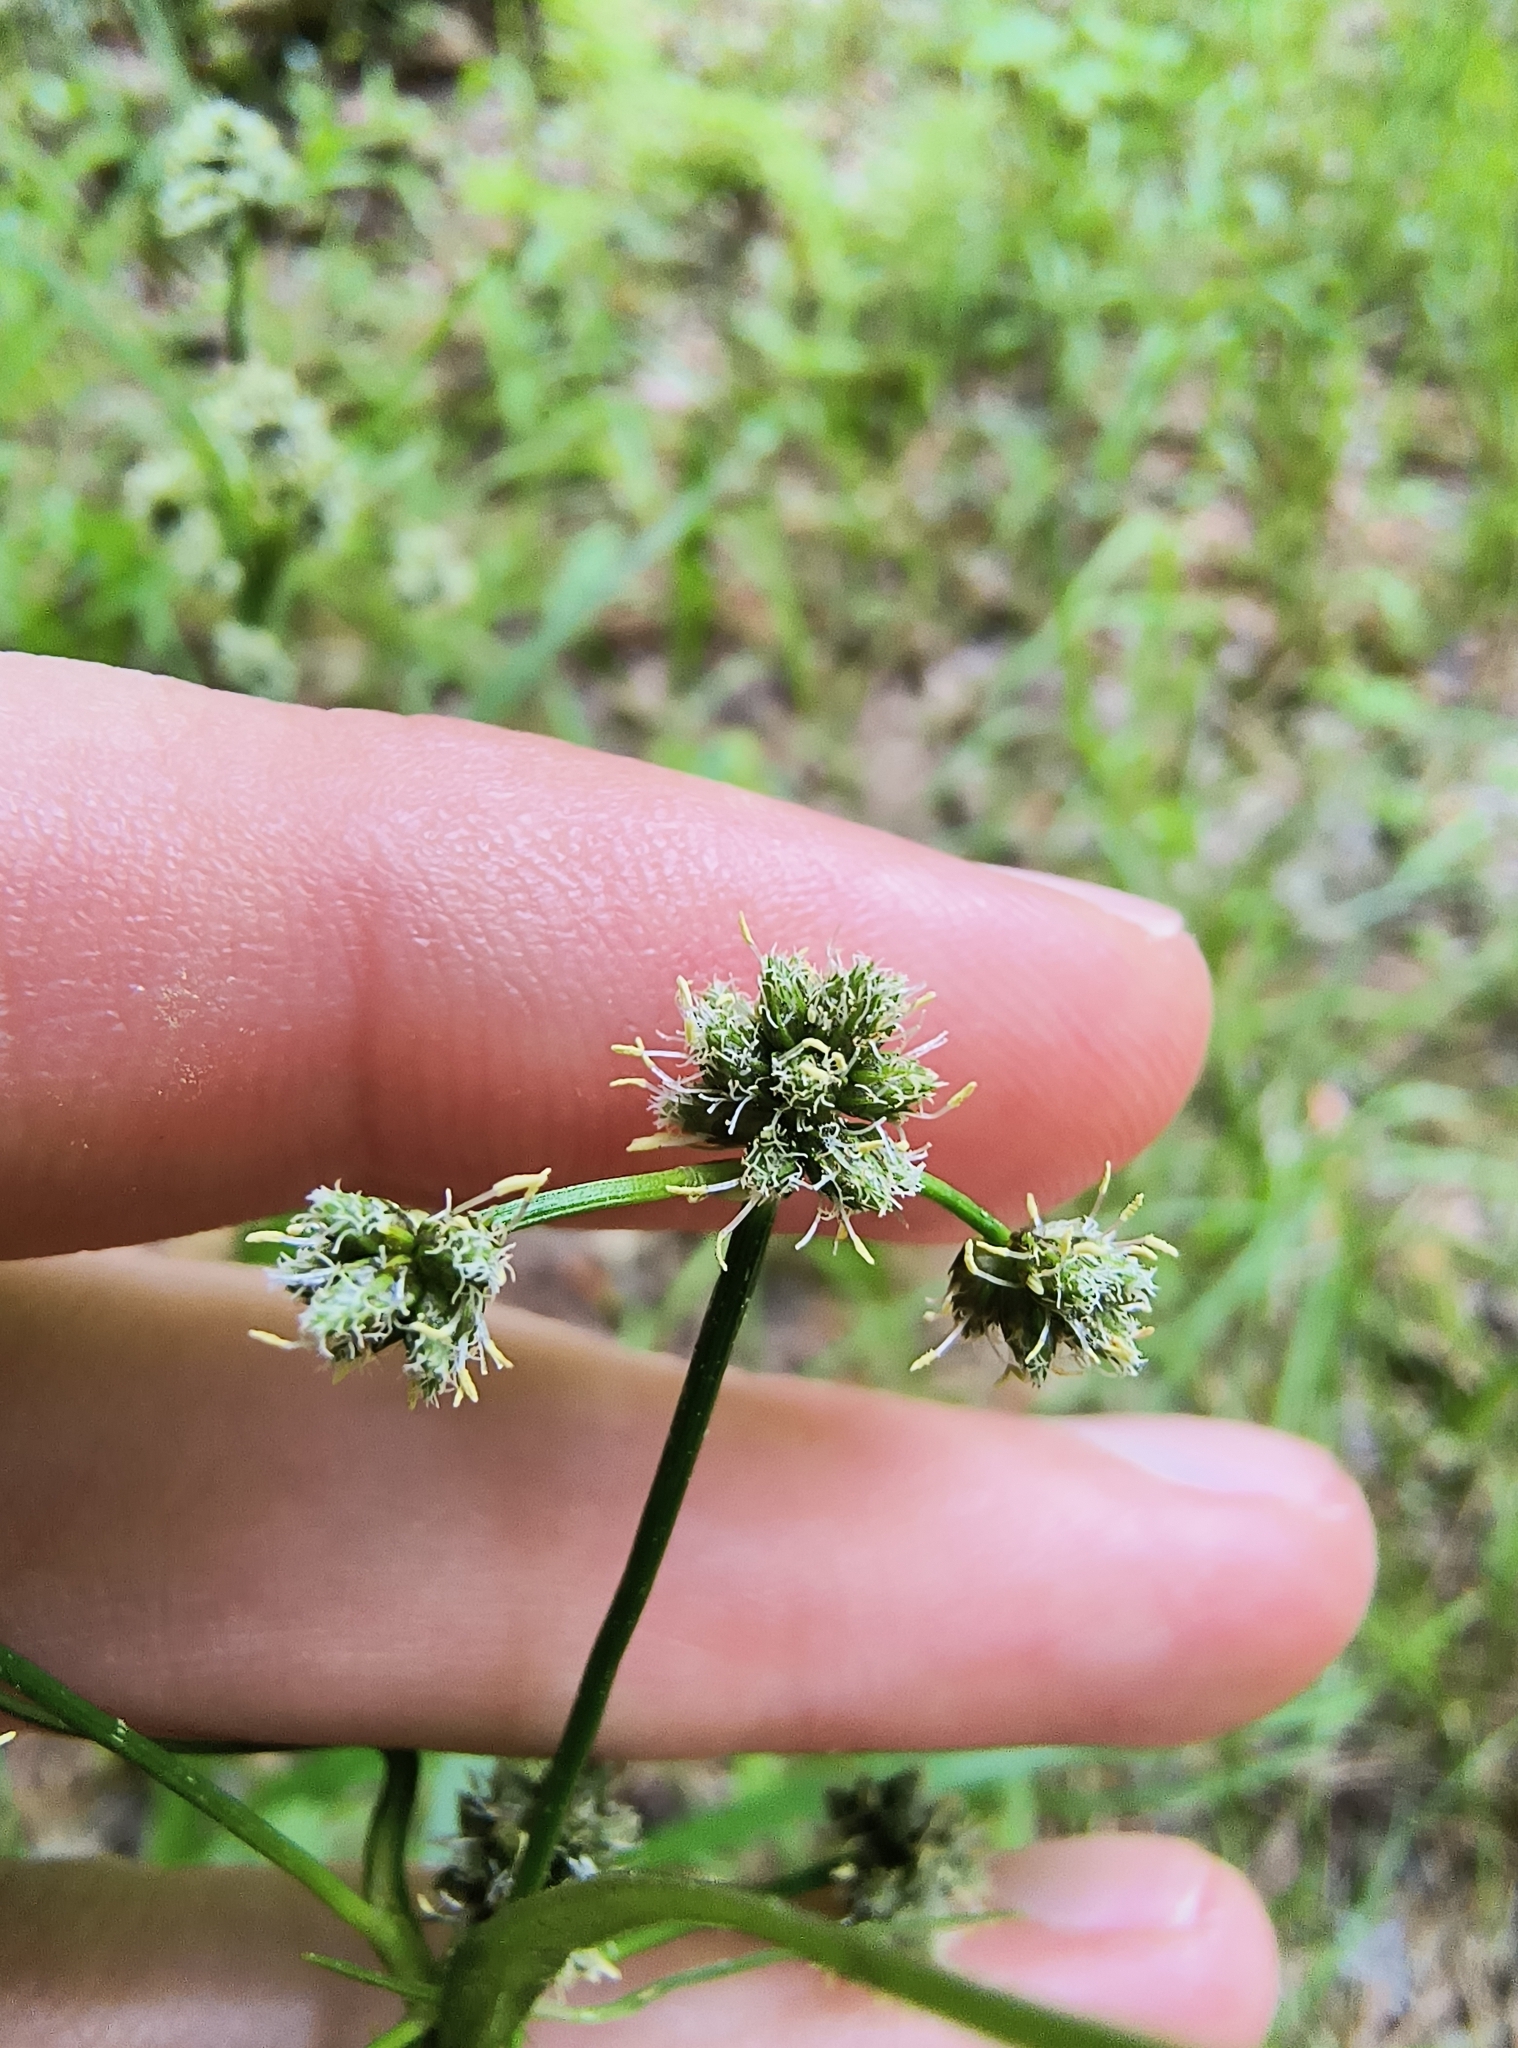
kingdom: Plantae
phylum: Tracheophyta
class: Liliopsida
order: Poales
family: Cyperaceae
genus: Scirpus
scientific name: Scirpus georgianus
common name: Bristleless dark-green bulrush
